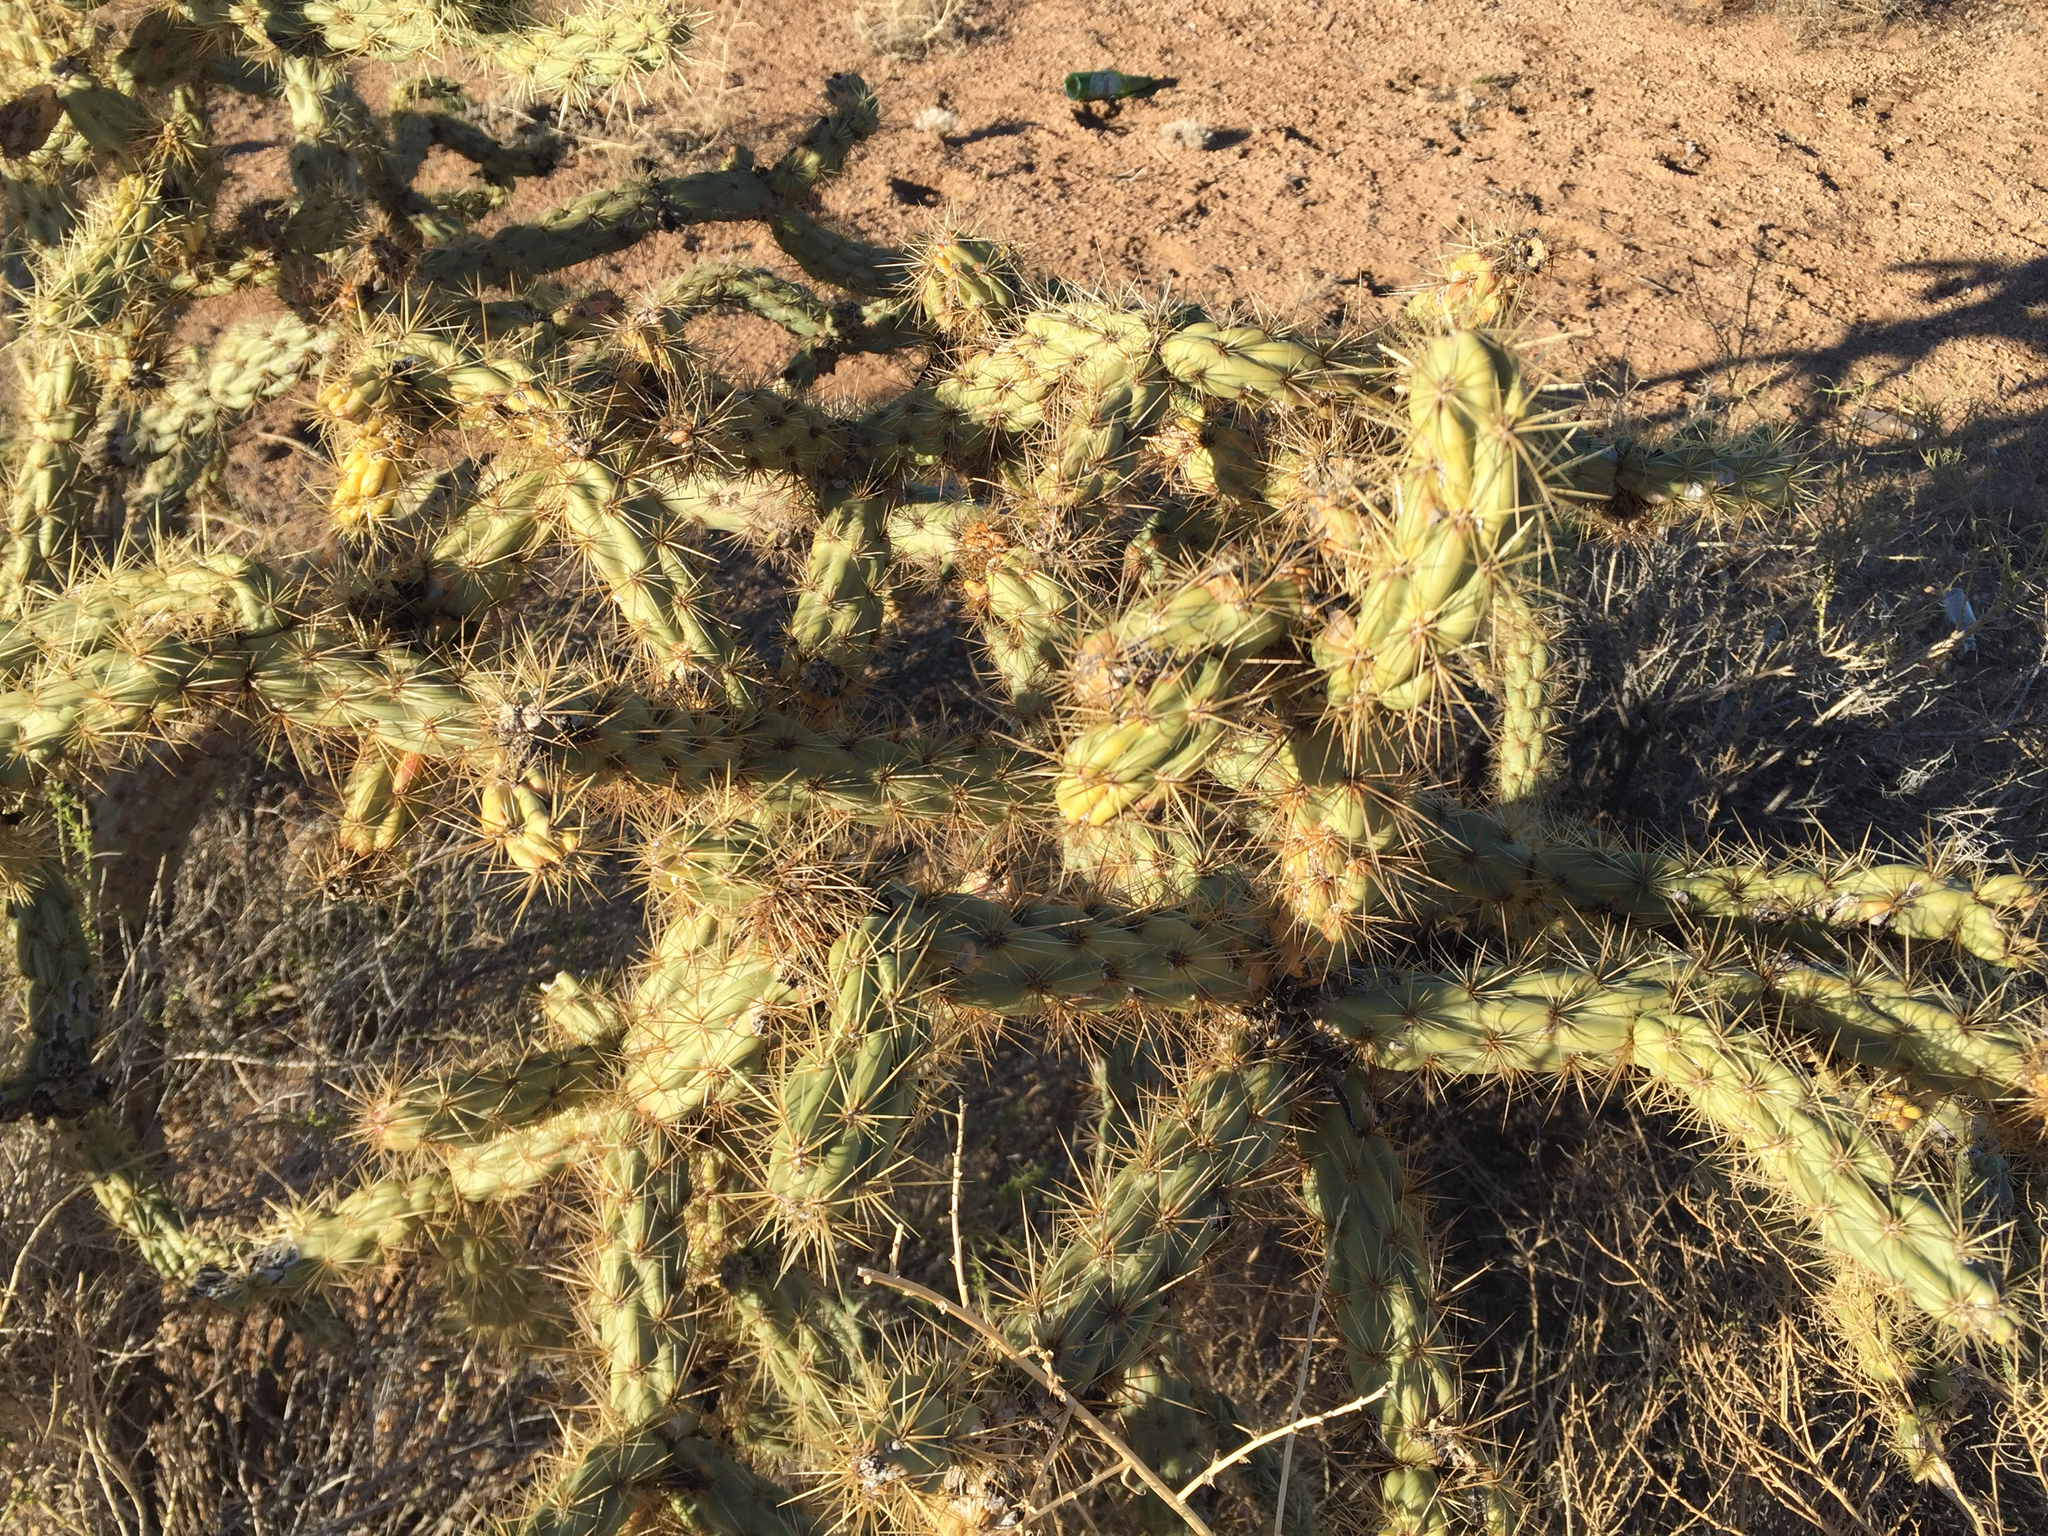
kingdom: Plantae
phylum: Tracheophyta
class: Magnoliopsida
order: Caryophyllales
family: Cactaceae
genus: Cylindropuntia
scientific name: Cylindropuntia acanthocarpa
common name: Buckhorn cholla
